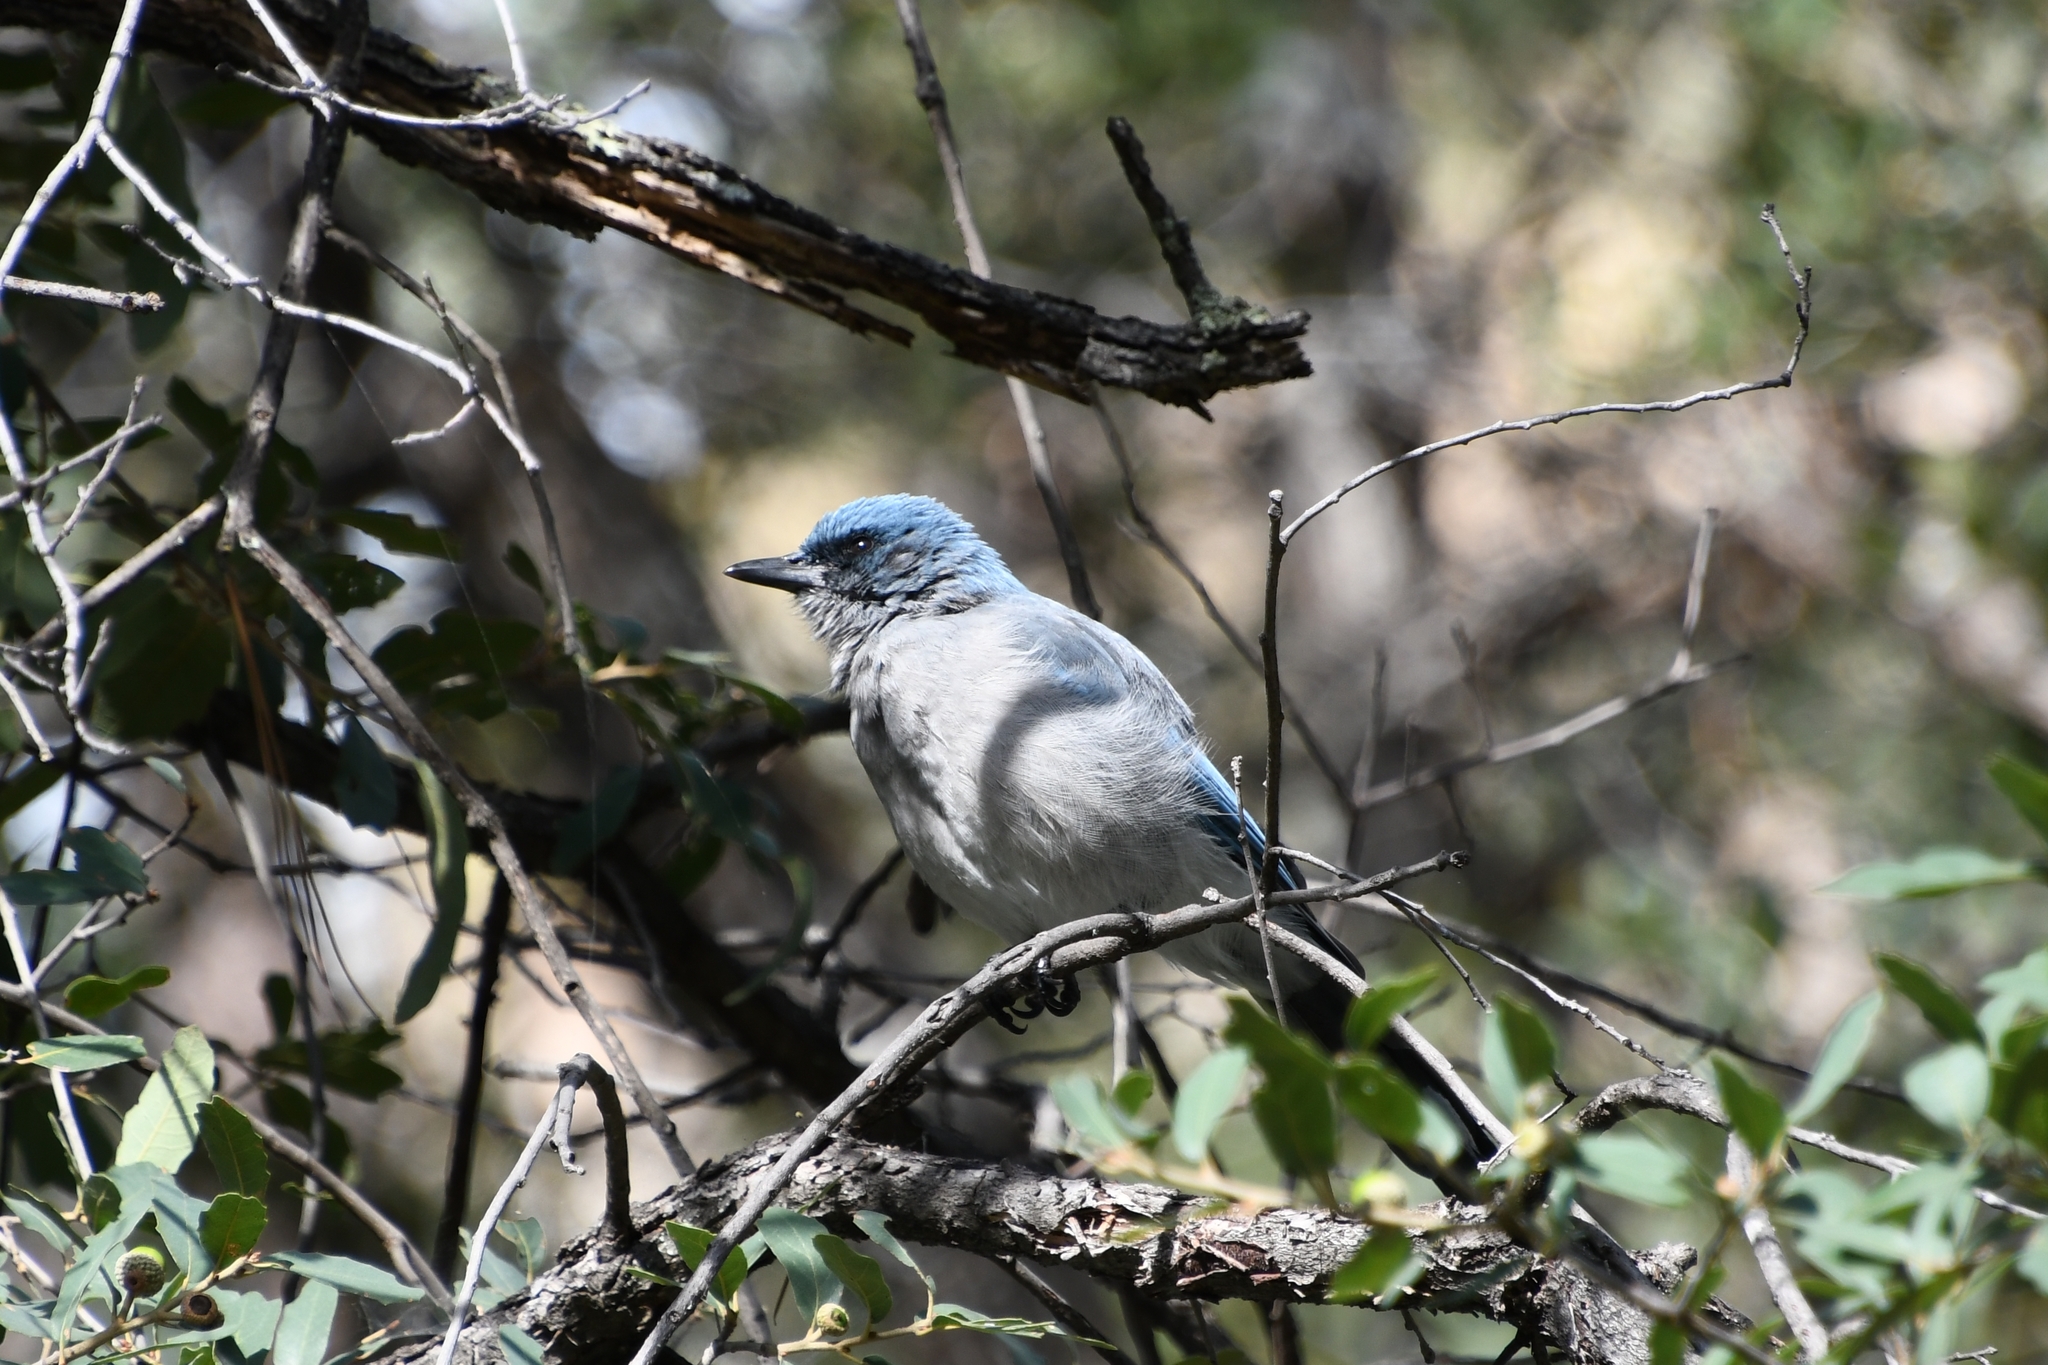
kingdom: Animalia
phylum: Chordata
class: Aves
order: Passeriformes
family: Corvidae
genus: Aphelocoma
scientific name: Aphelocoma wollweberi
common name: Mexican jay
